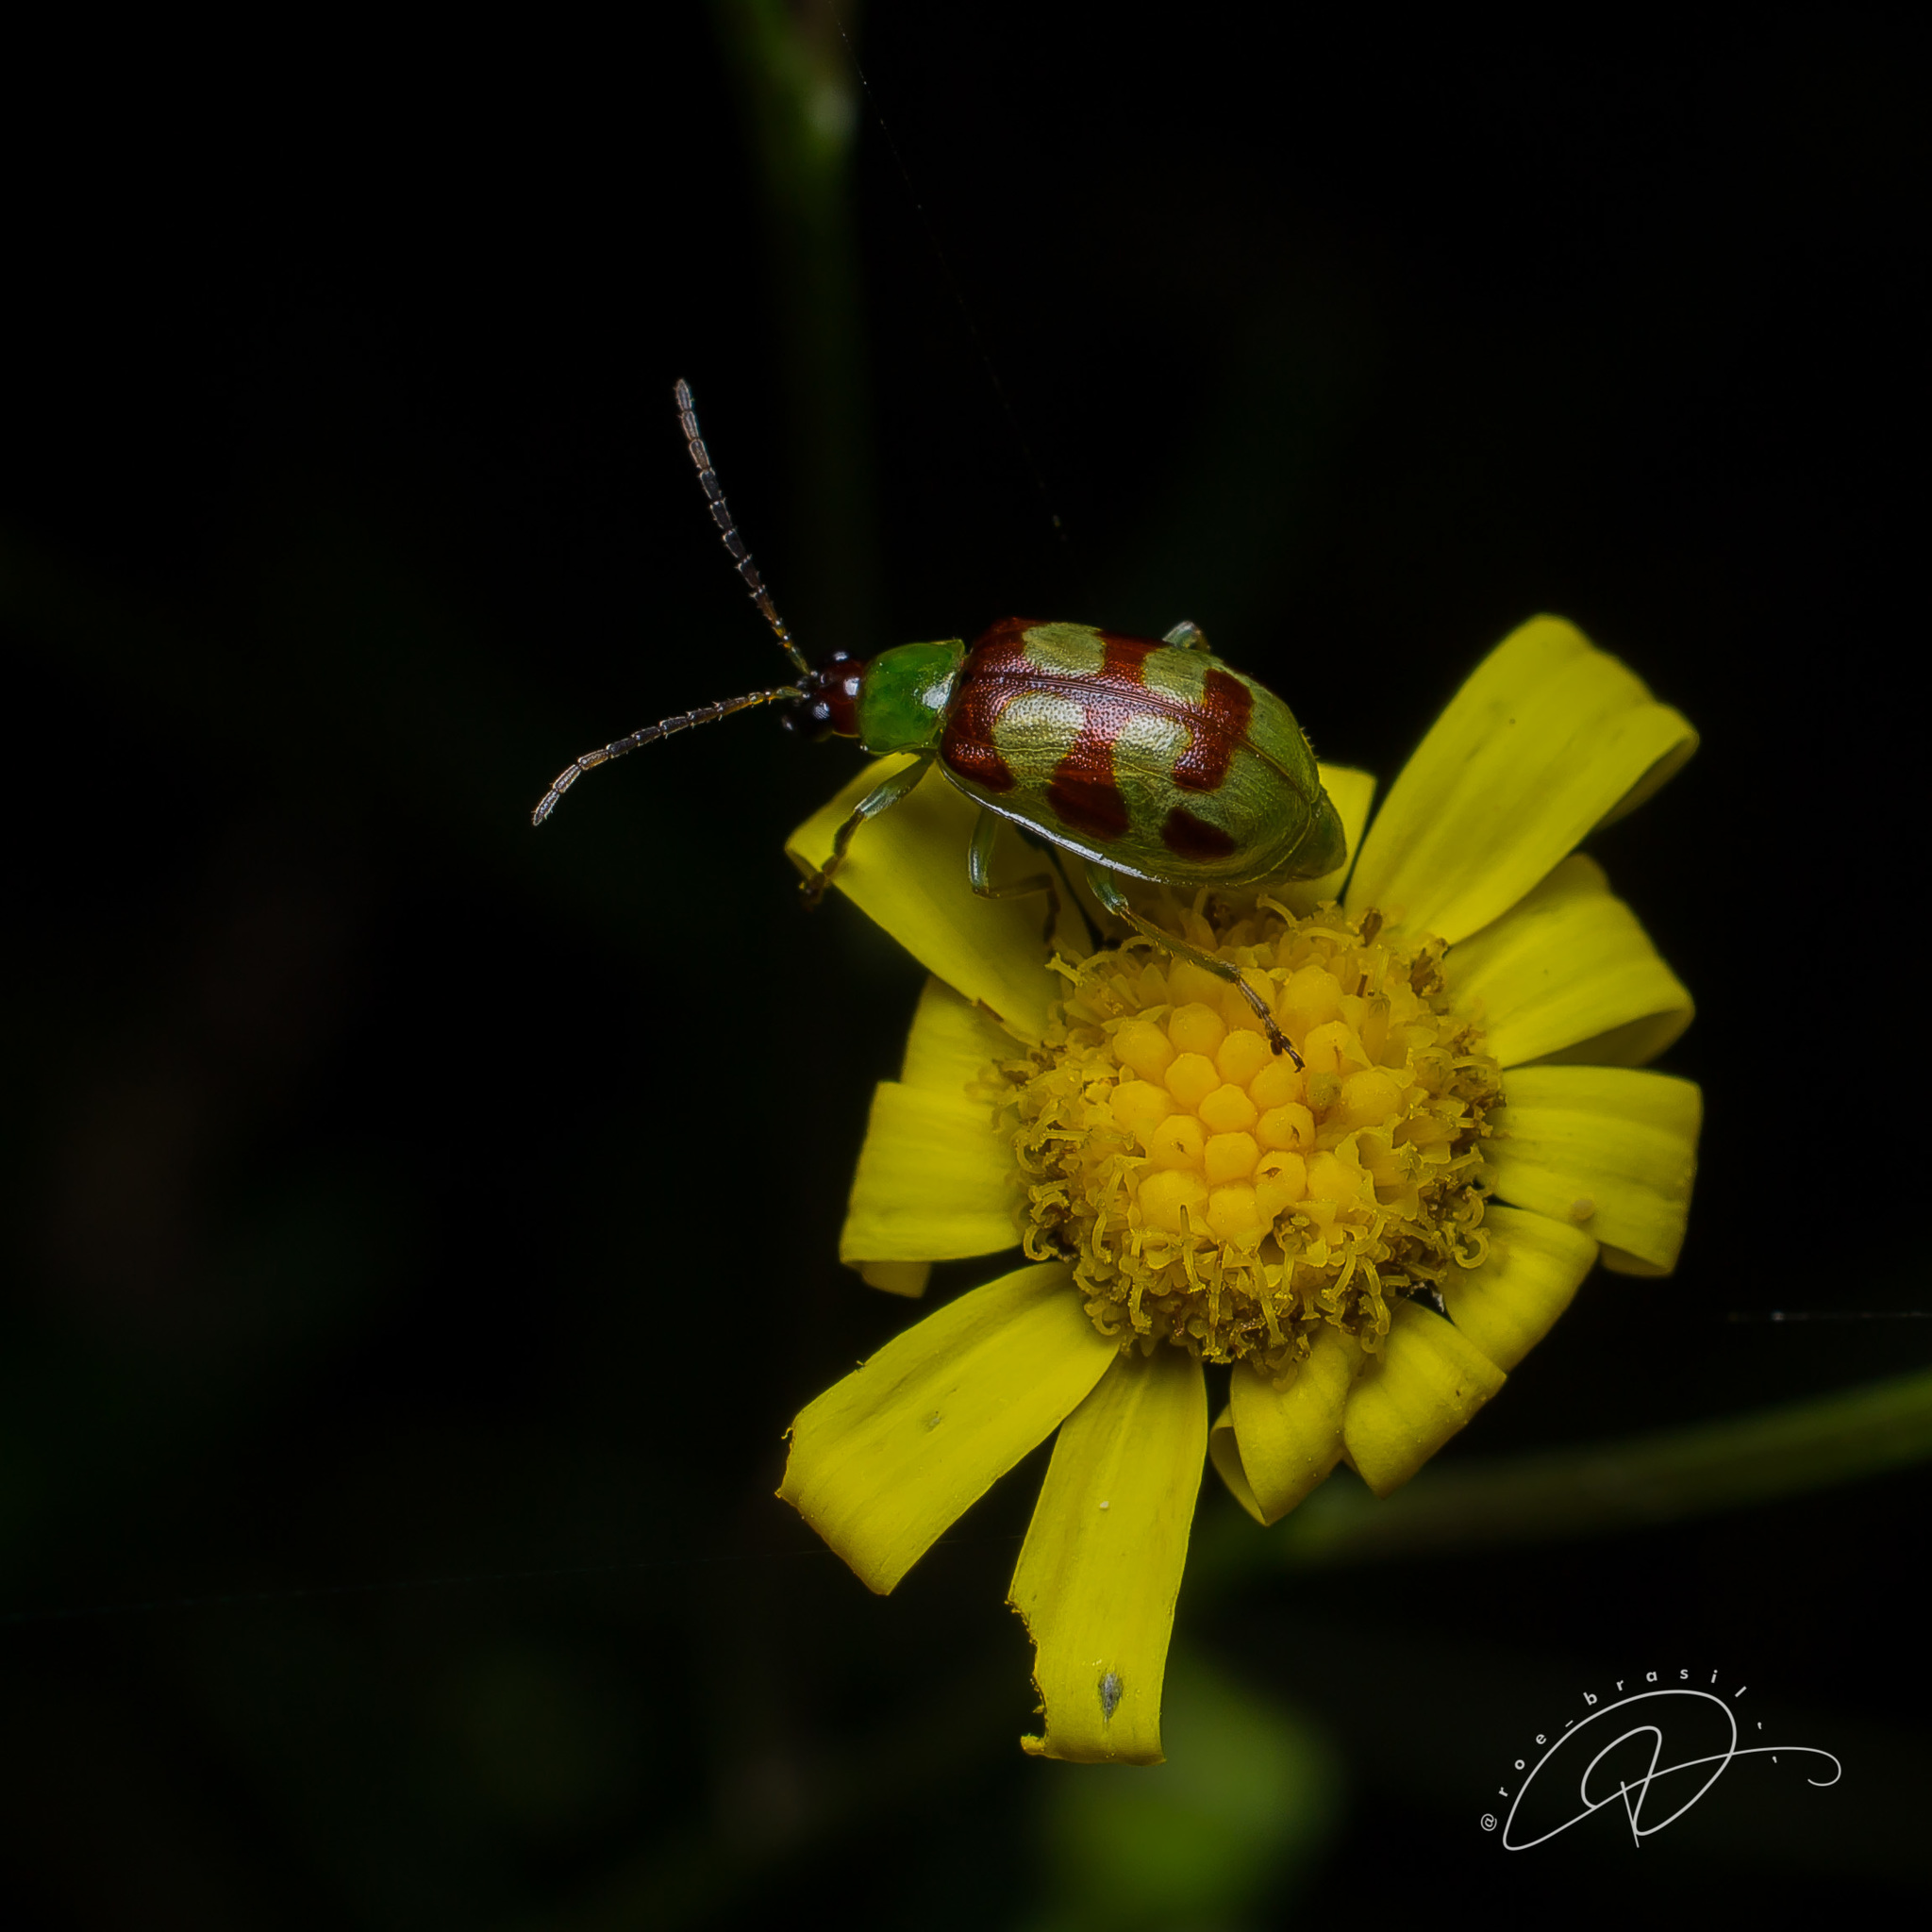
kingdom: Animalia
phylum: Arthropoda
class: Insecta
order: Coleoptera
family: Chrysomelidae
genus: Basiprionota
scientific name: Basiprionota sinuata
